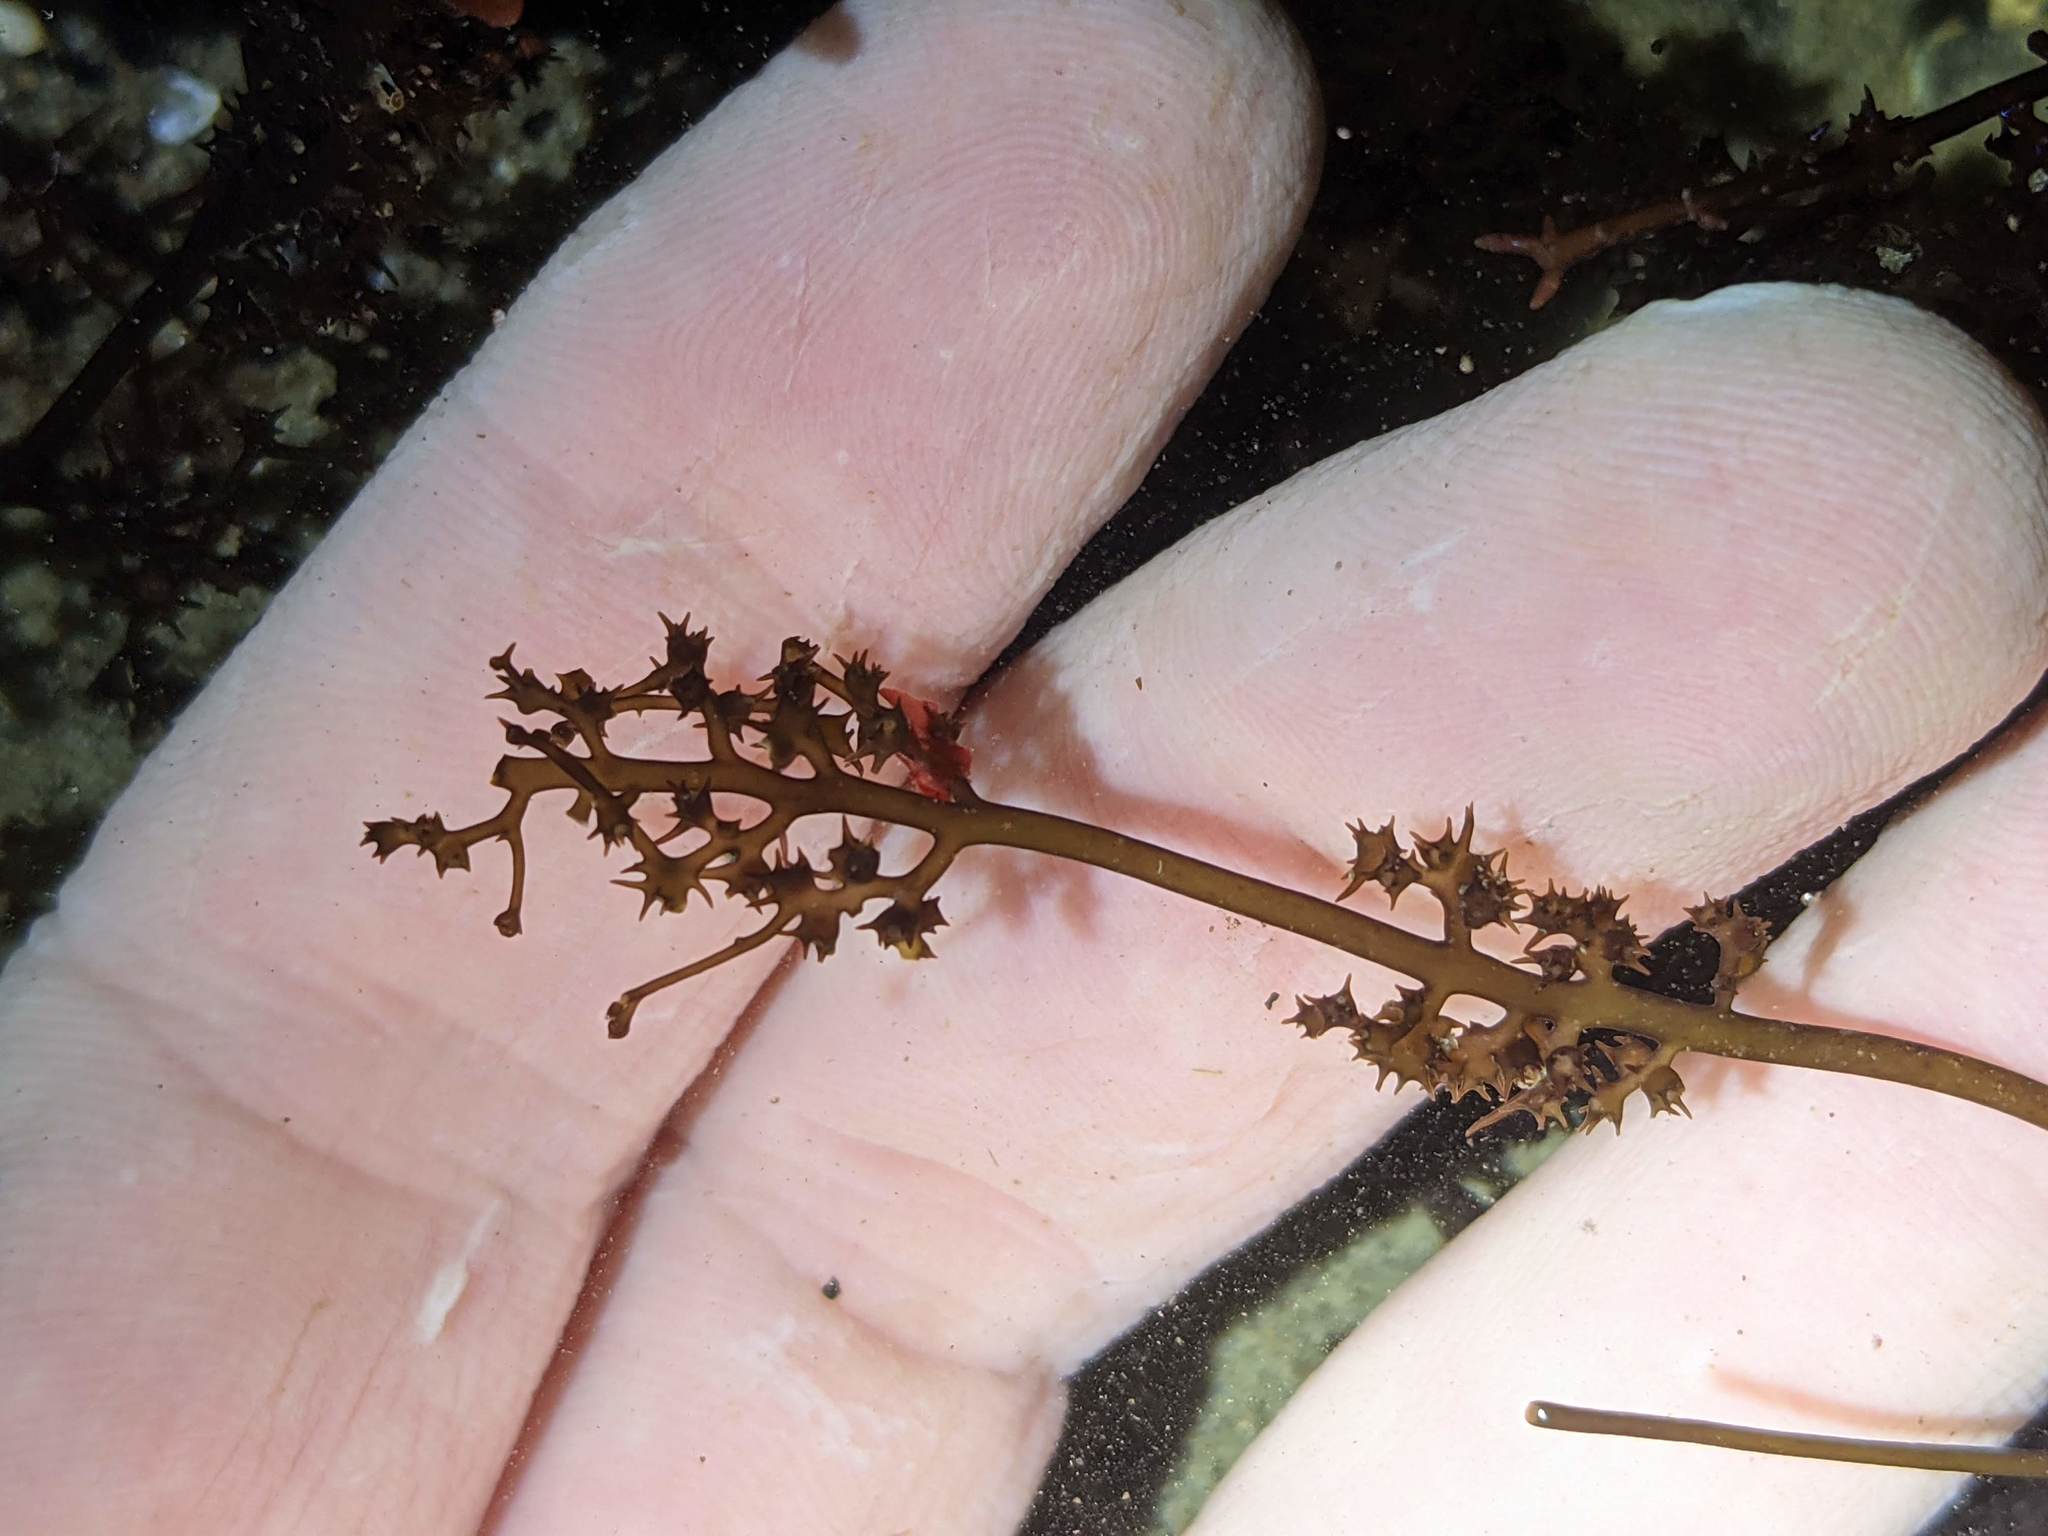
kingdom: Plantae
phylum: Rhodophyta
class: Florideophyceae
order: Gigartinales
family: Gigartinaceae
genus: Chondracanthus
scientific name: Chondracanthus canaliculatus
